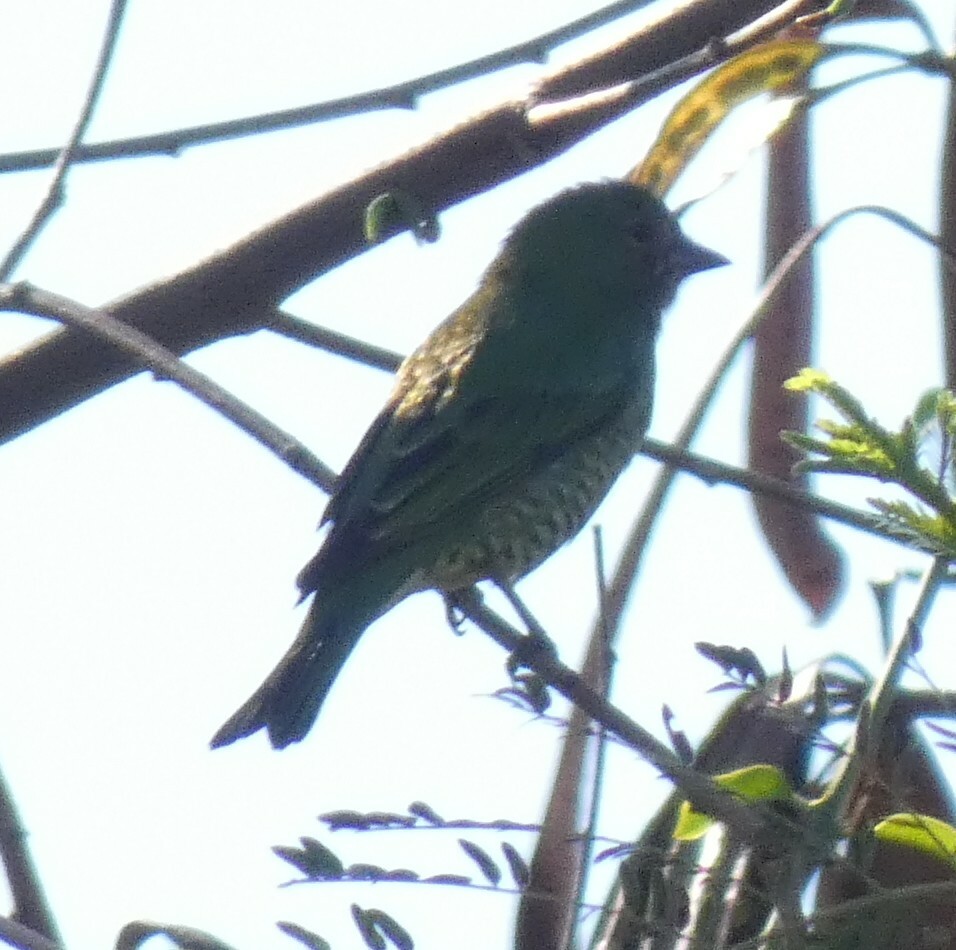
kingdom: Animalia
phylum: Chordata
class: Aves
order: Passeriformes
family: Thraupidae
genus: Tersina
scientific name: Tersina viridis
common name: Swallow tanager
